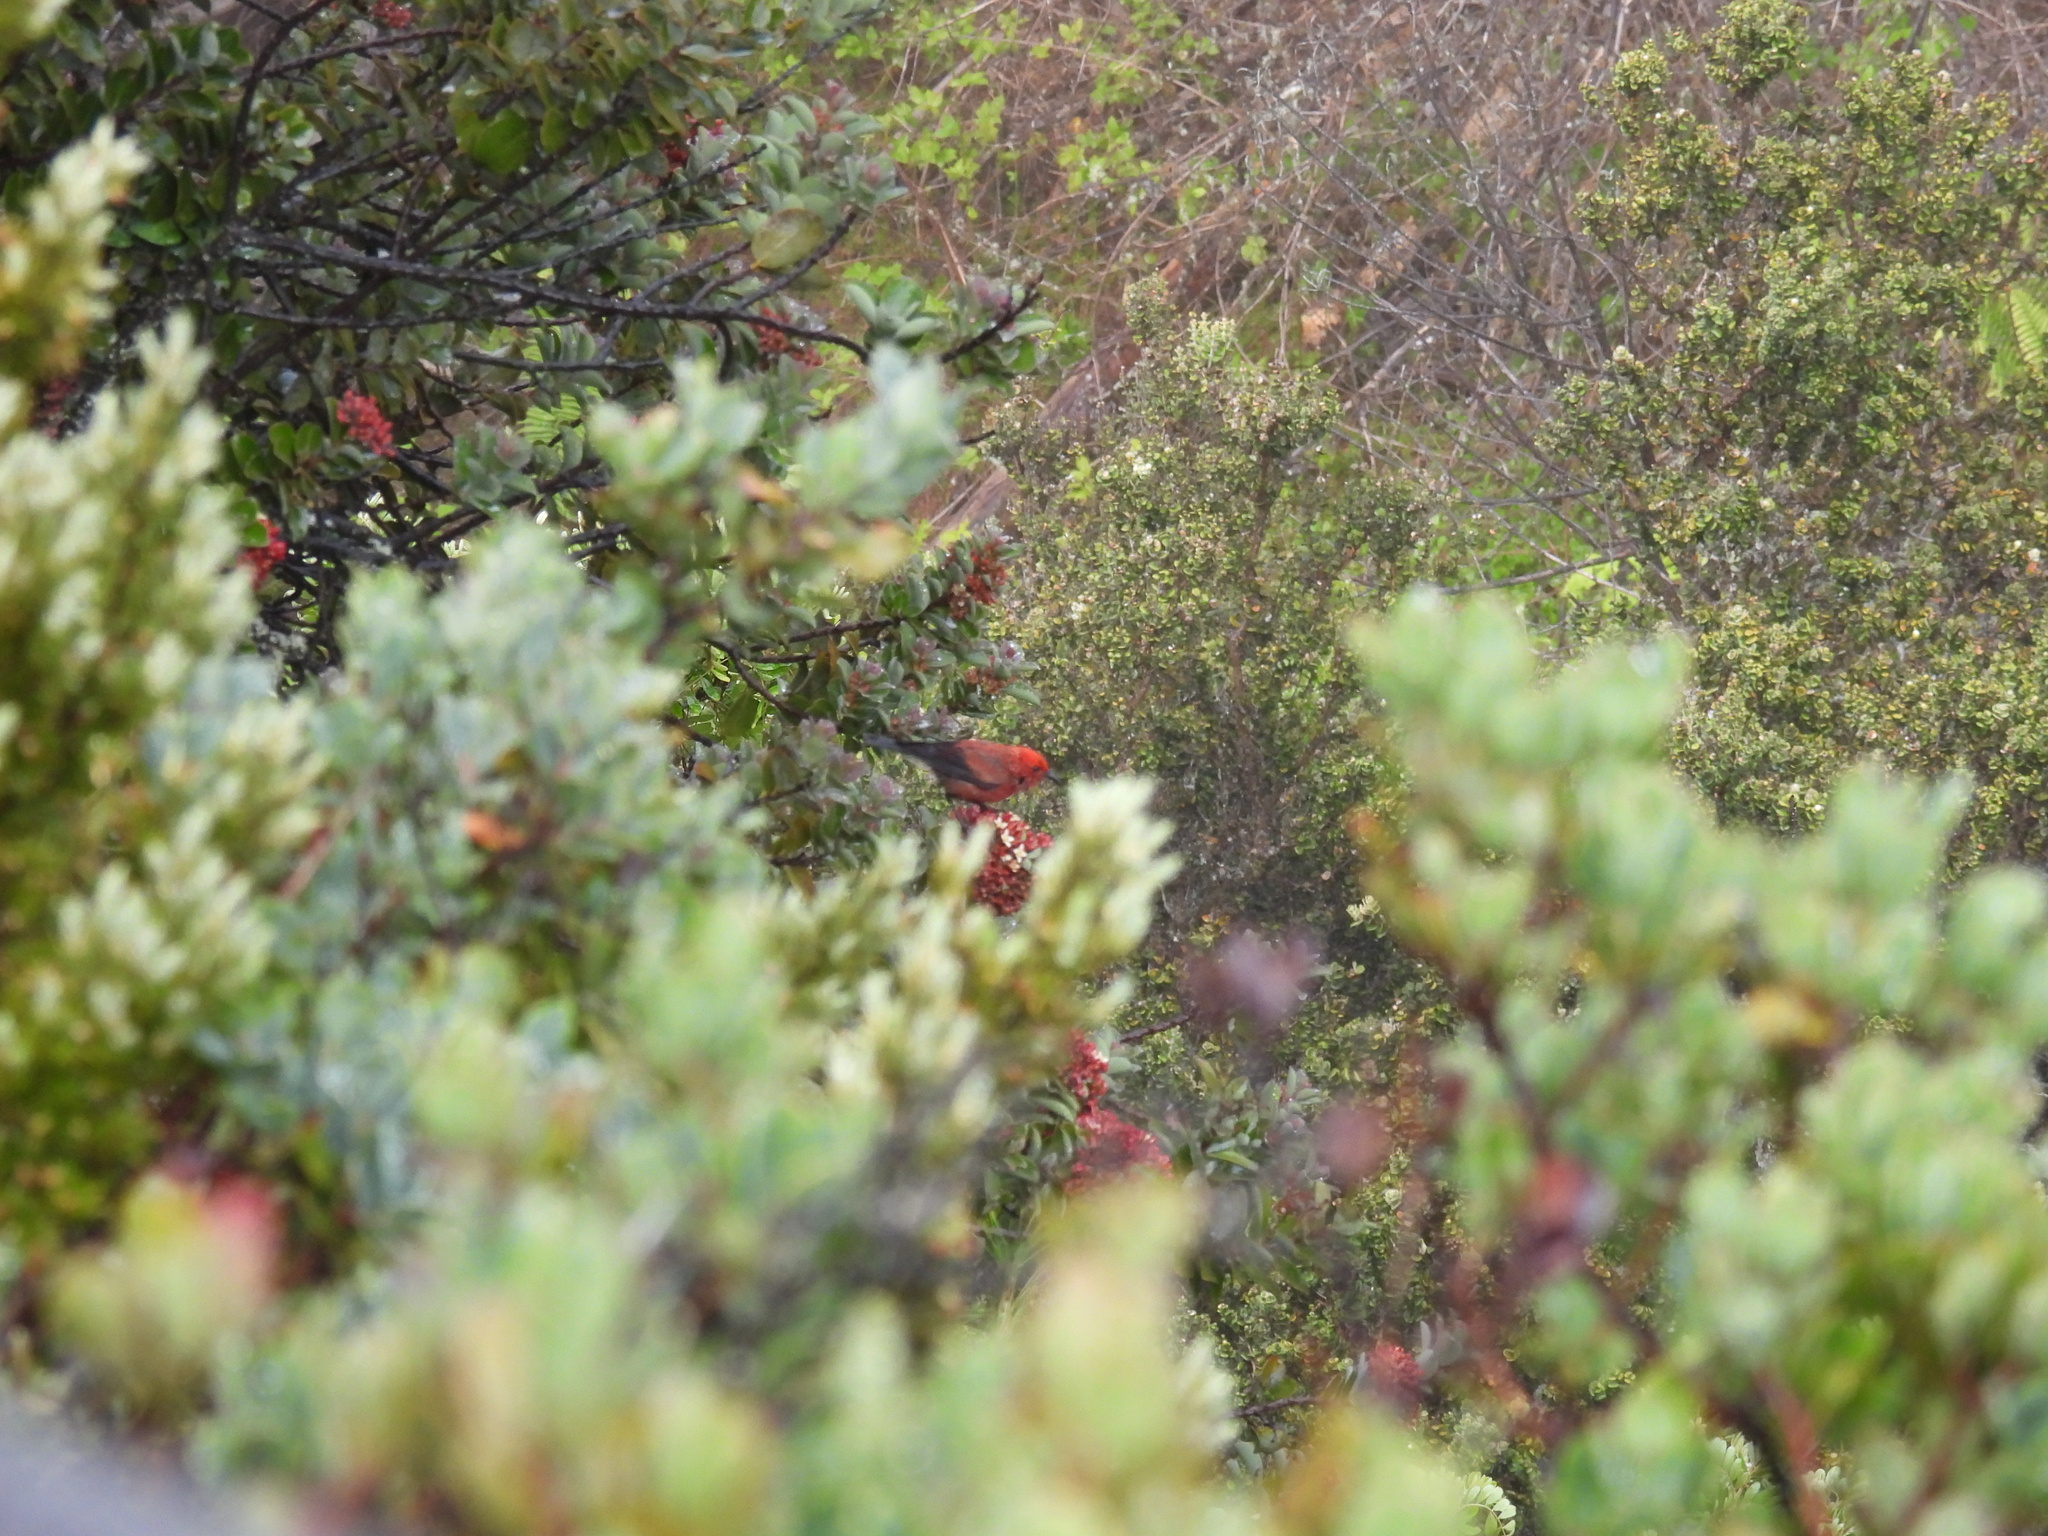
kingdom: Animalia
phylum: Chordata
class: Aves
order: Passeriformes
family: Fringillidae
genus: Himatione
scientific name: Himatione sanguinea
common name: Apapane
